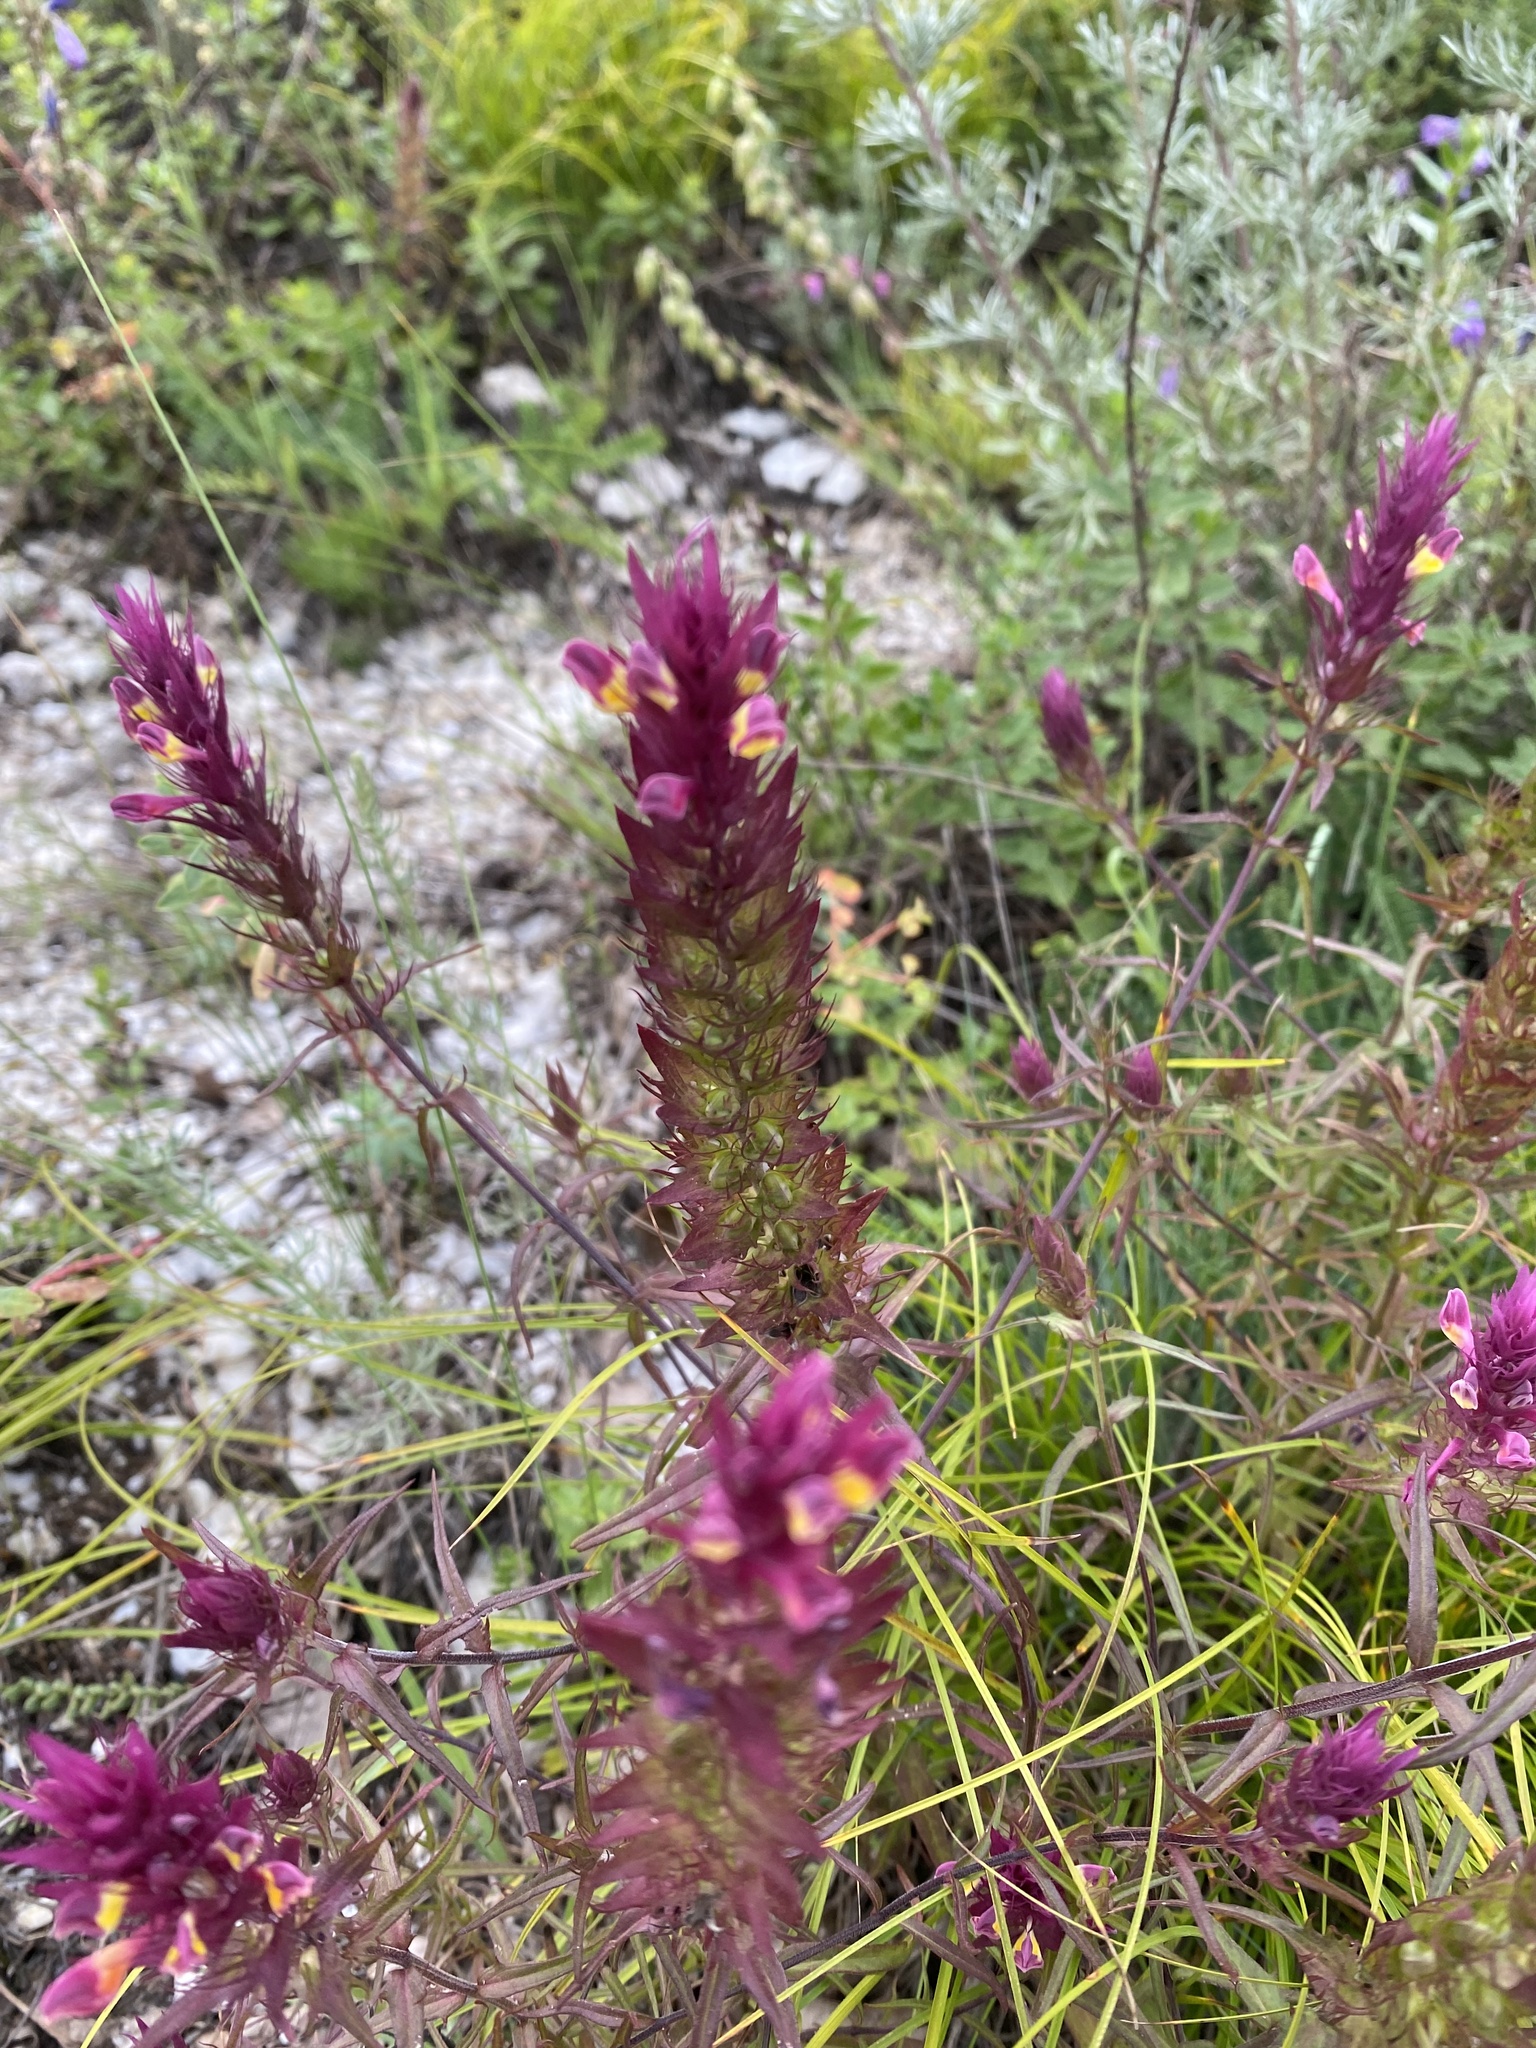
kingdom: Plantae
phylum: Tracheophyta
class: Magnoliopsida
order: Lamiales
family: Orobanchaceae
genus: Melampyrum
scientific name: Melampyrum arvense
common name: Field cow-wheat
